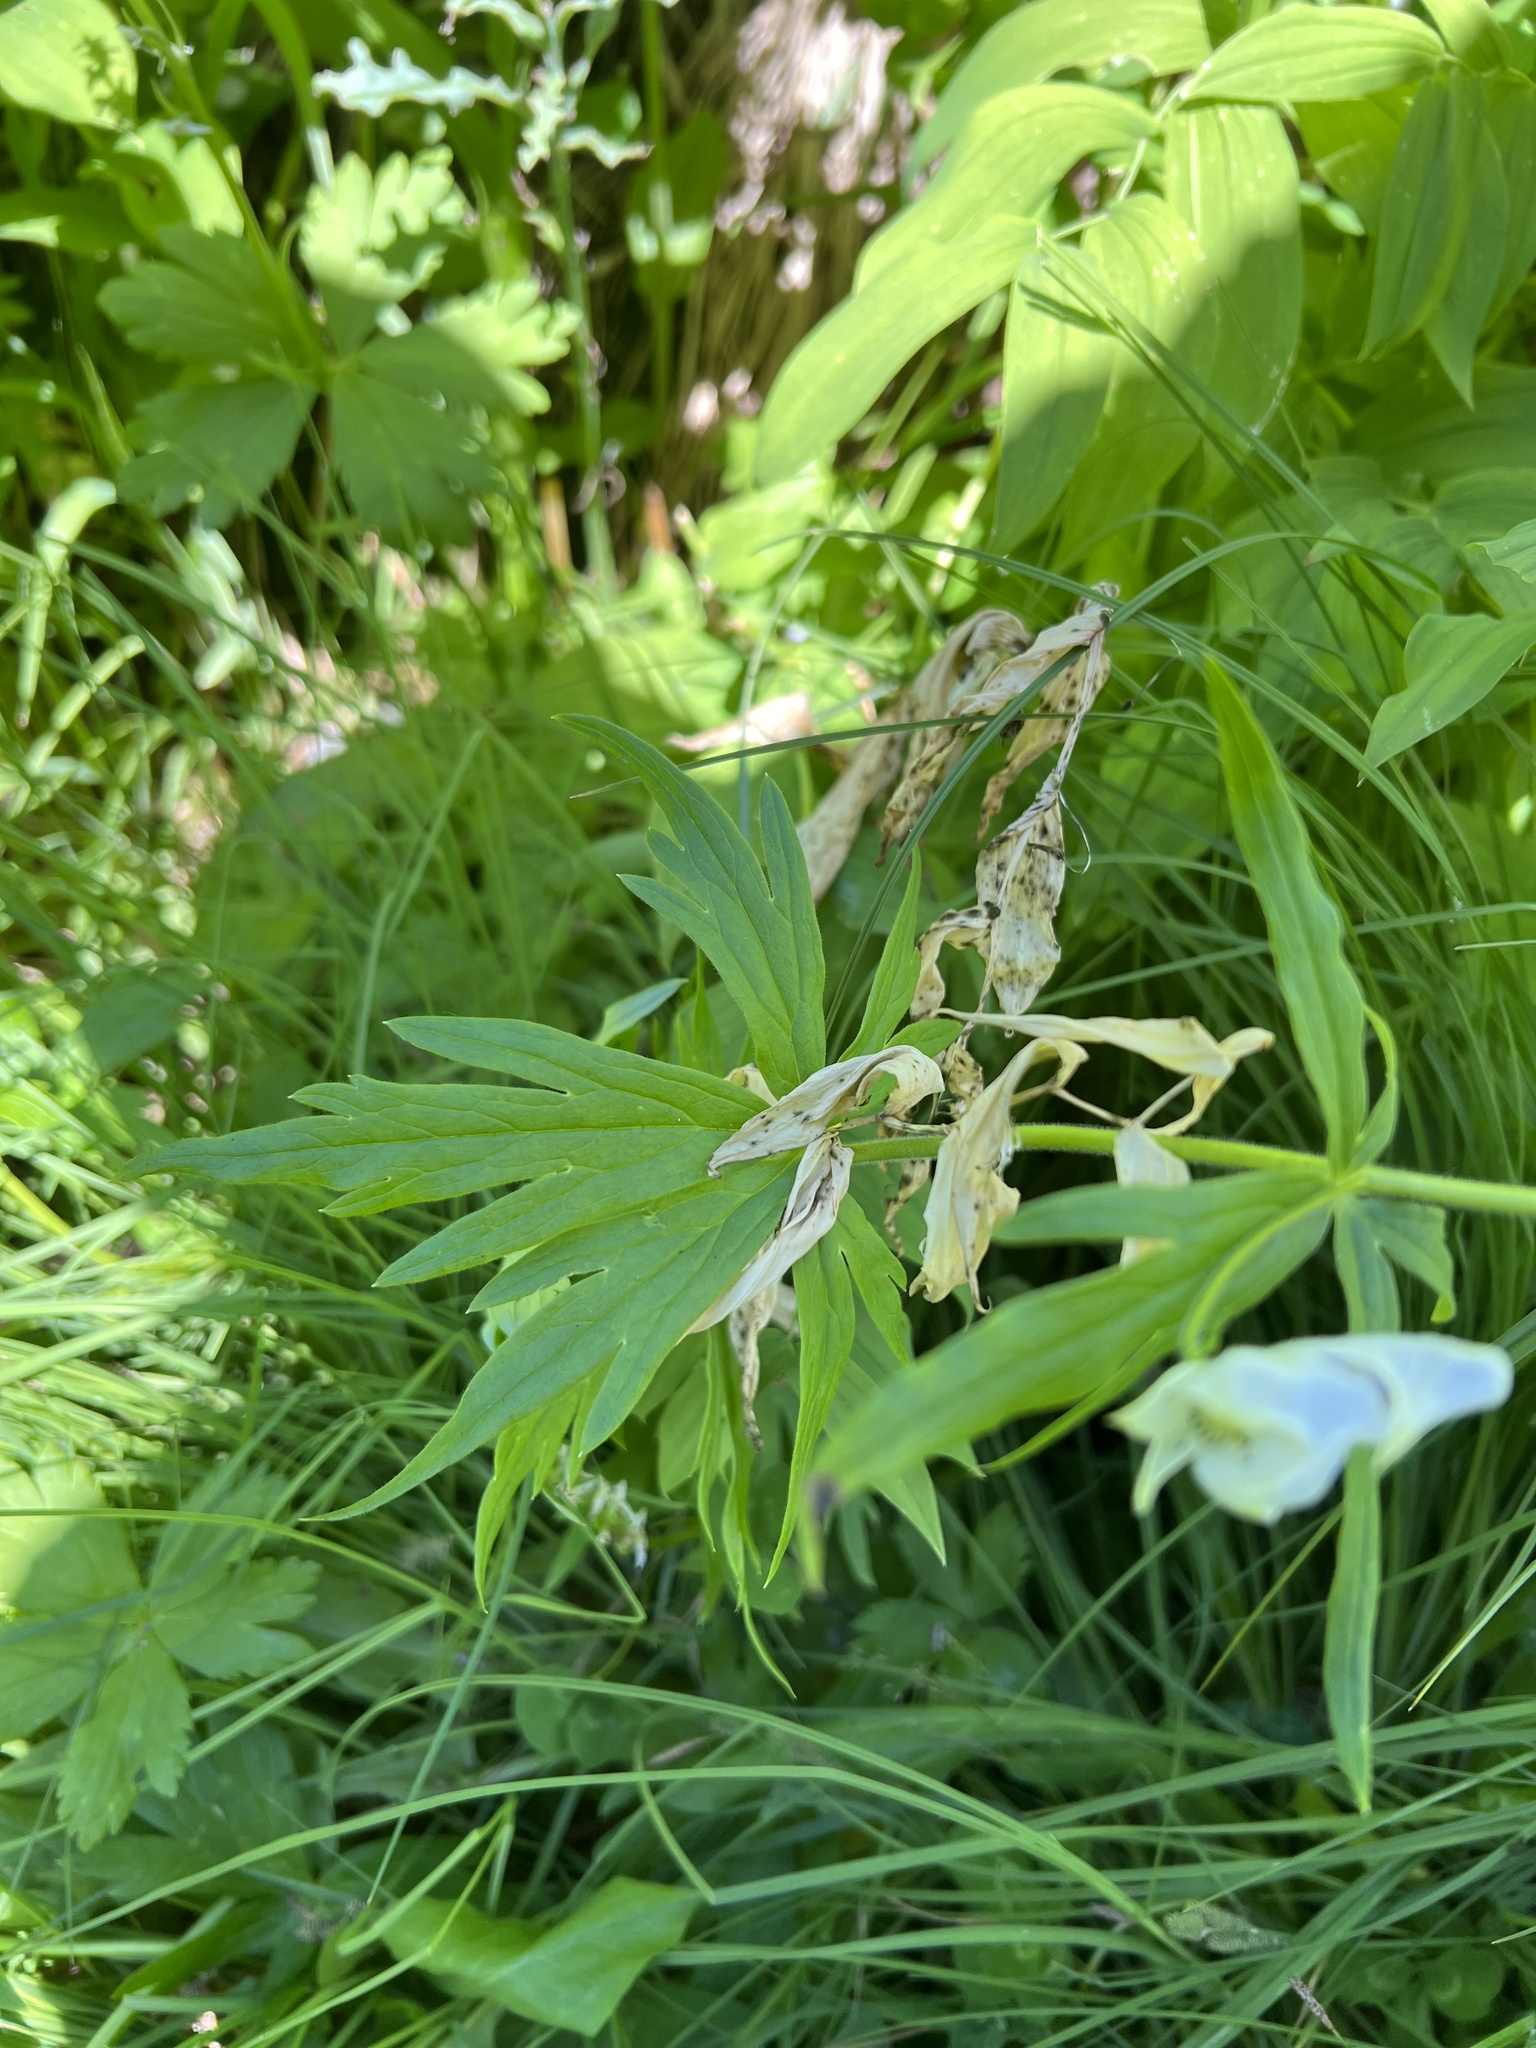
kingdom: Plantae
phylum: Tracheophyta
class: Magnoliopsida
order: Ranunculales
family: Ranunculaceae
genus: Aconitum
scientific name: Aconitum columbianum
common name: Columbia aconite
